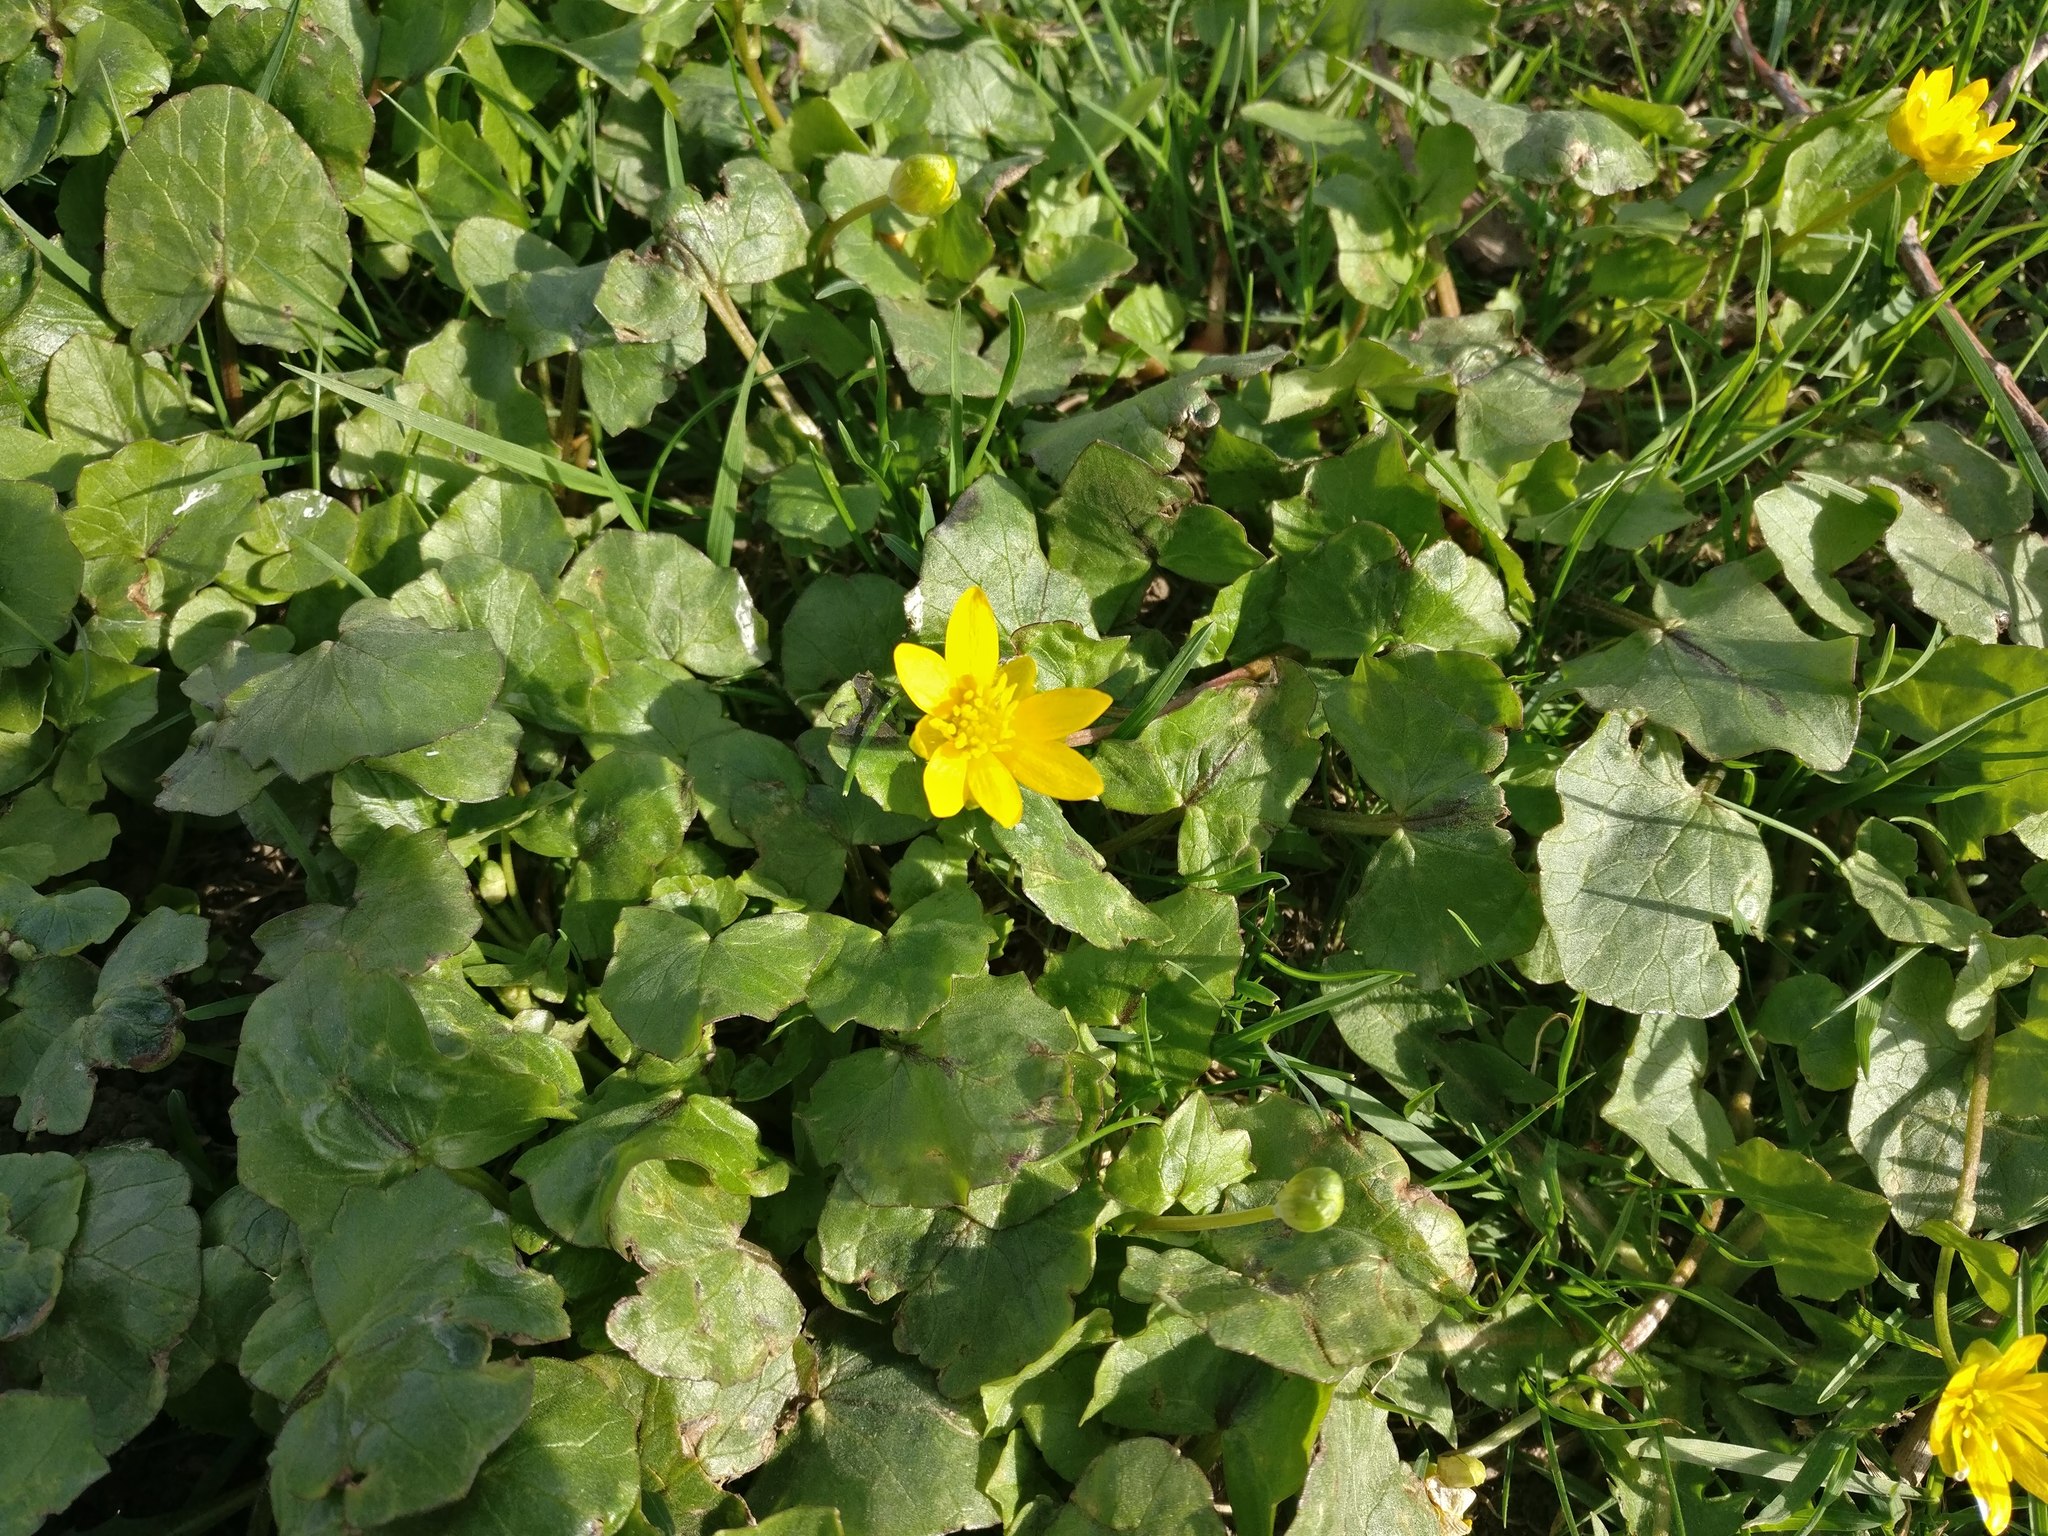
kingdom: Plantae
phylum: Tracheophyta
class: Magnoliopsida
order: Ranunculales
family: Ranunculaceae
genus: Ficaria
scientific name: Ficaria verna
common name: Lesser celandine
